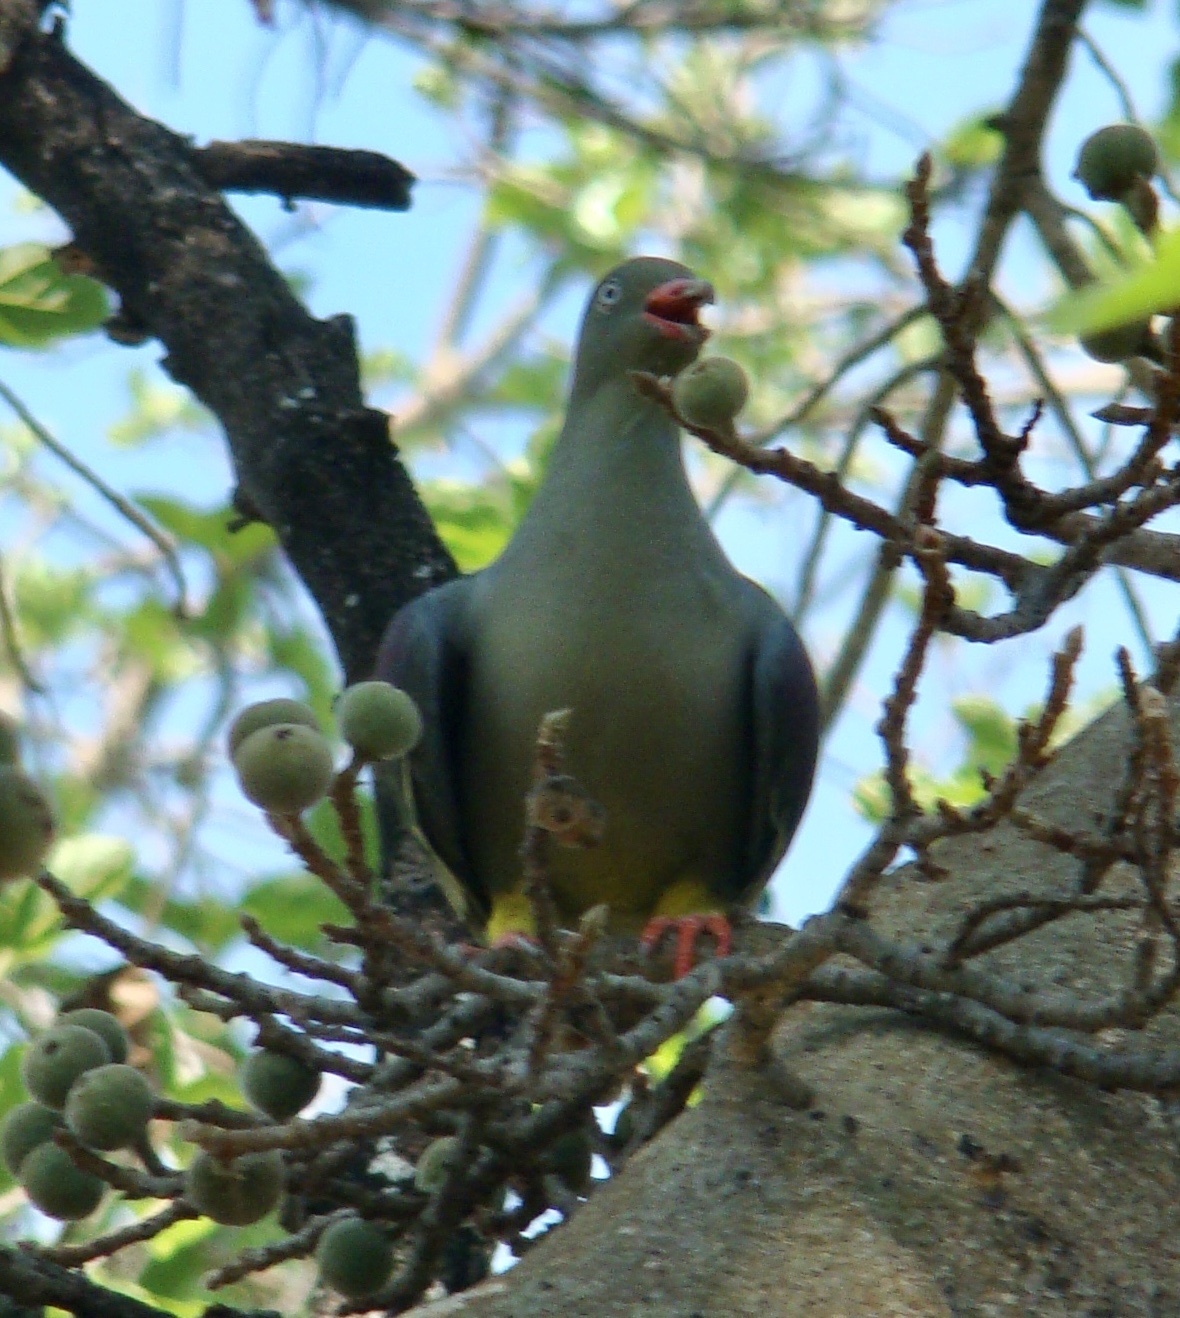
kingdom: Animalia
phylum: Chordata
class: Aves
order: Columbiformes
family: Columbidae
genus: Treron
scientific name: Treron calvus
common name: African green pigeon
